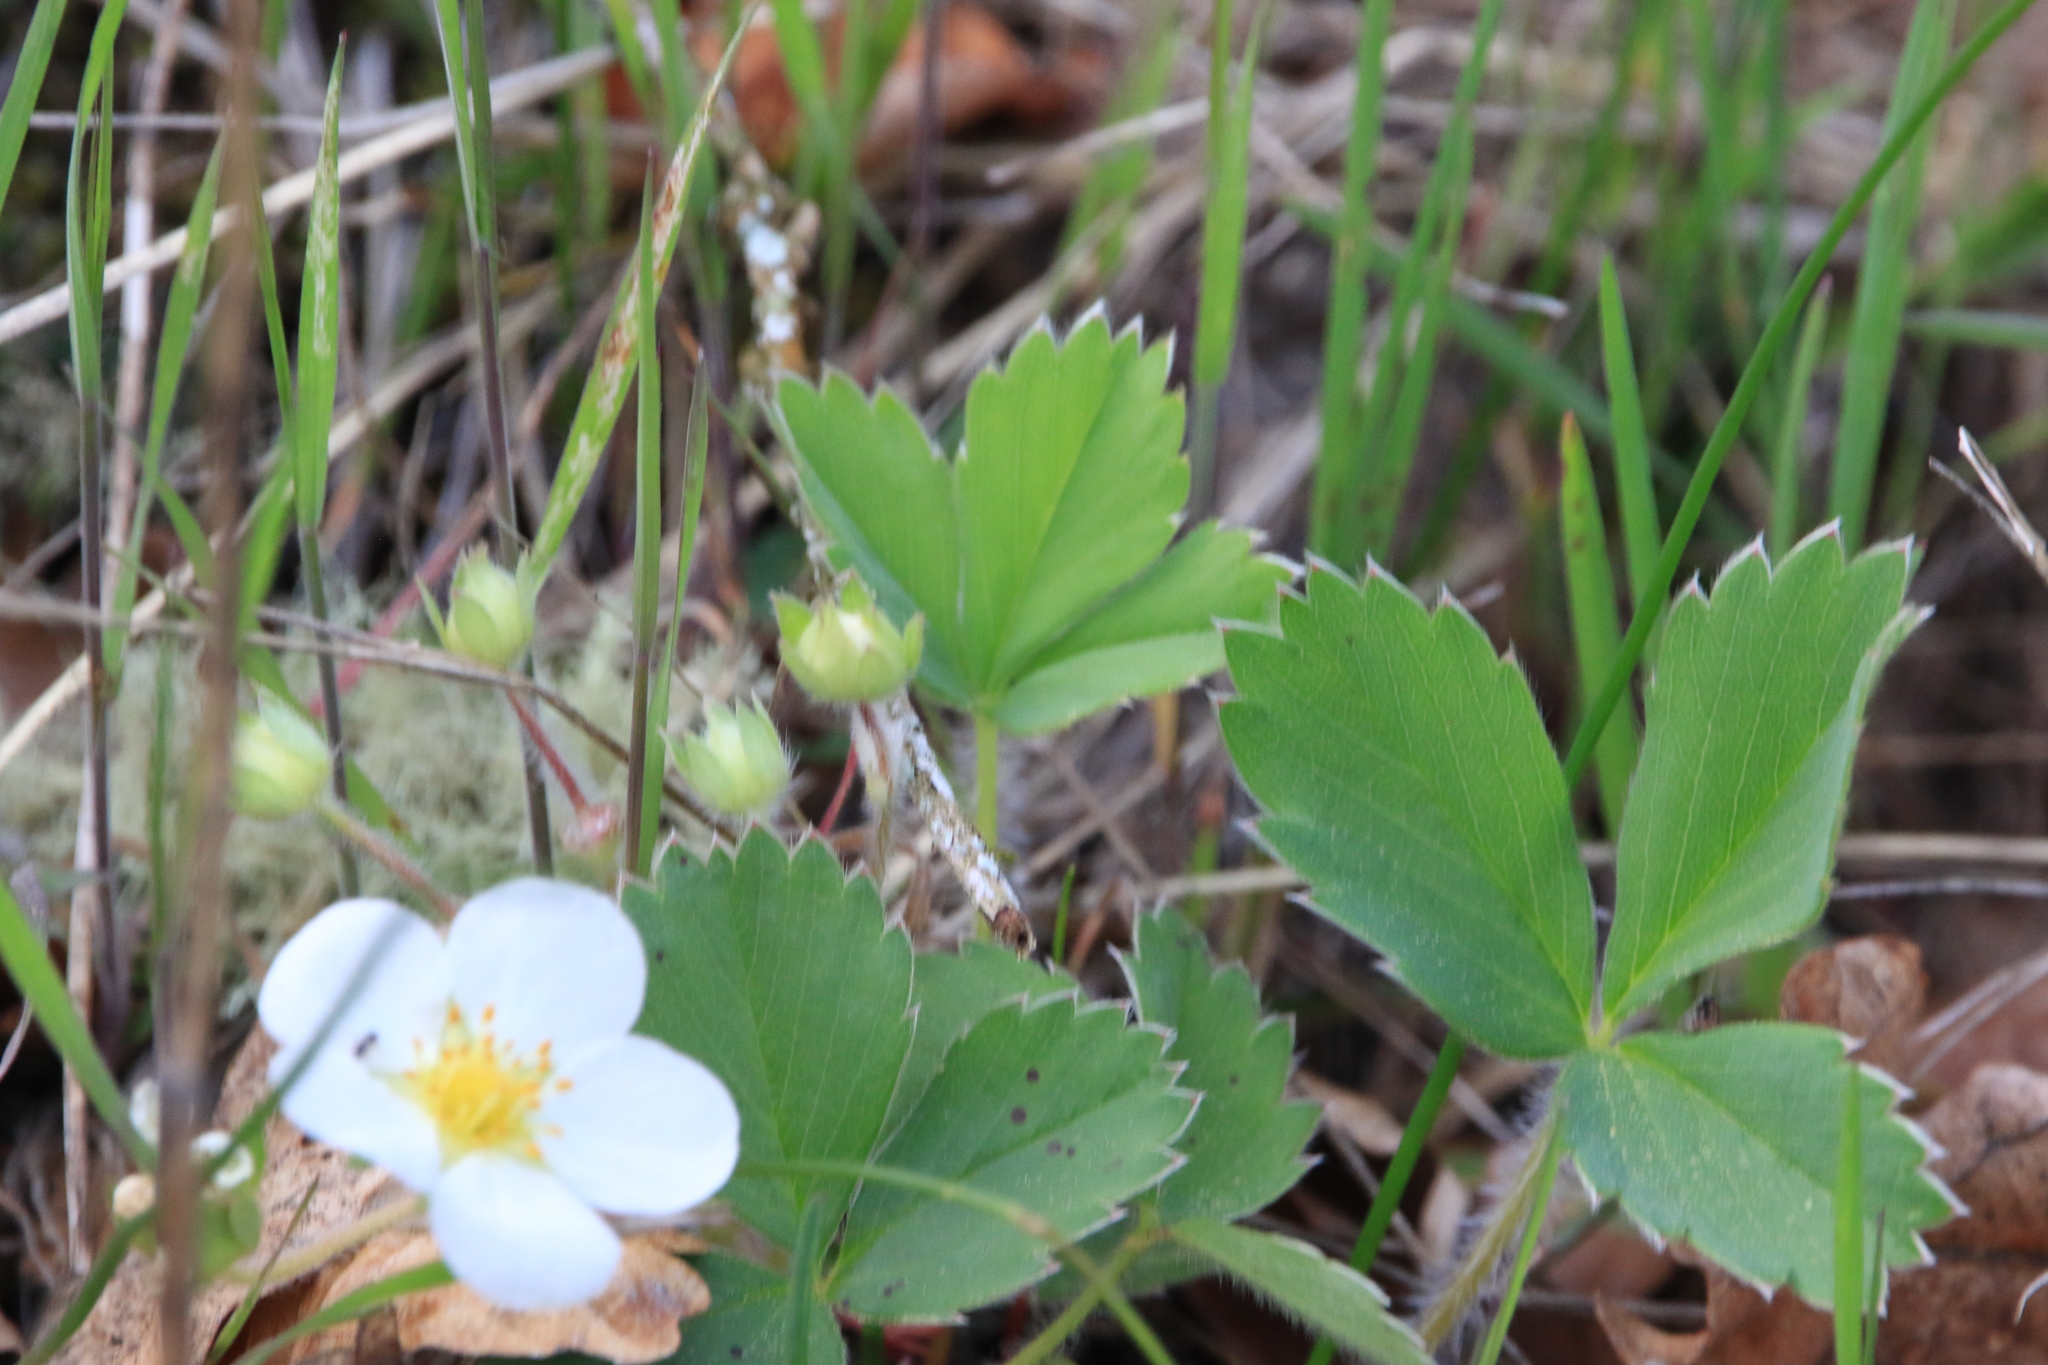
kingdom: Plantae
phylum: Tracheophyta
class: Magnoliopsida
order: Rosales
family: Rosaceae
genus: Fragaria
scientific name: Fragaria virginiana
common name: Thickleaved wild strawberry
